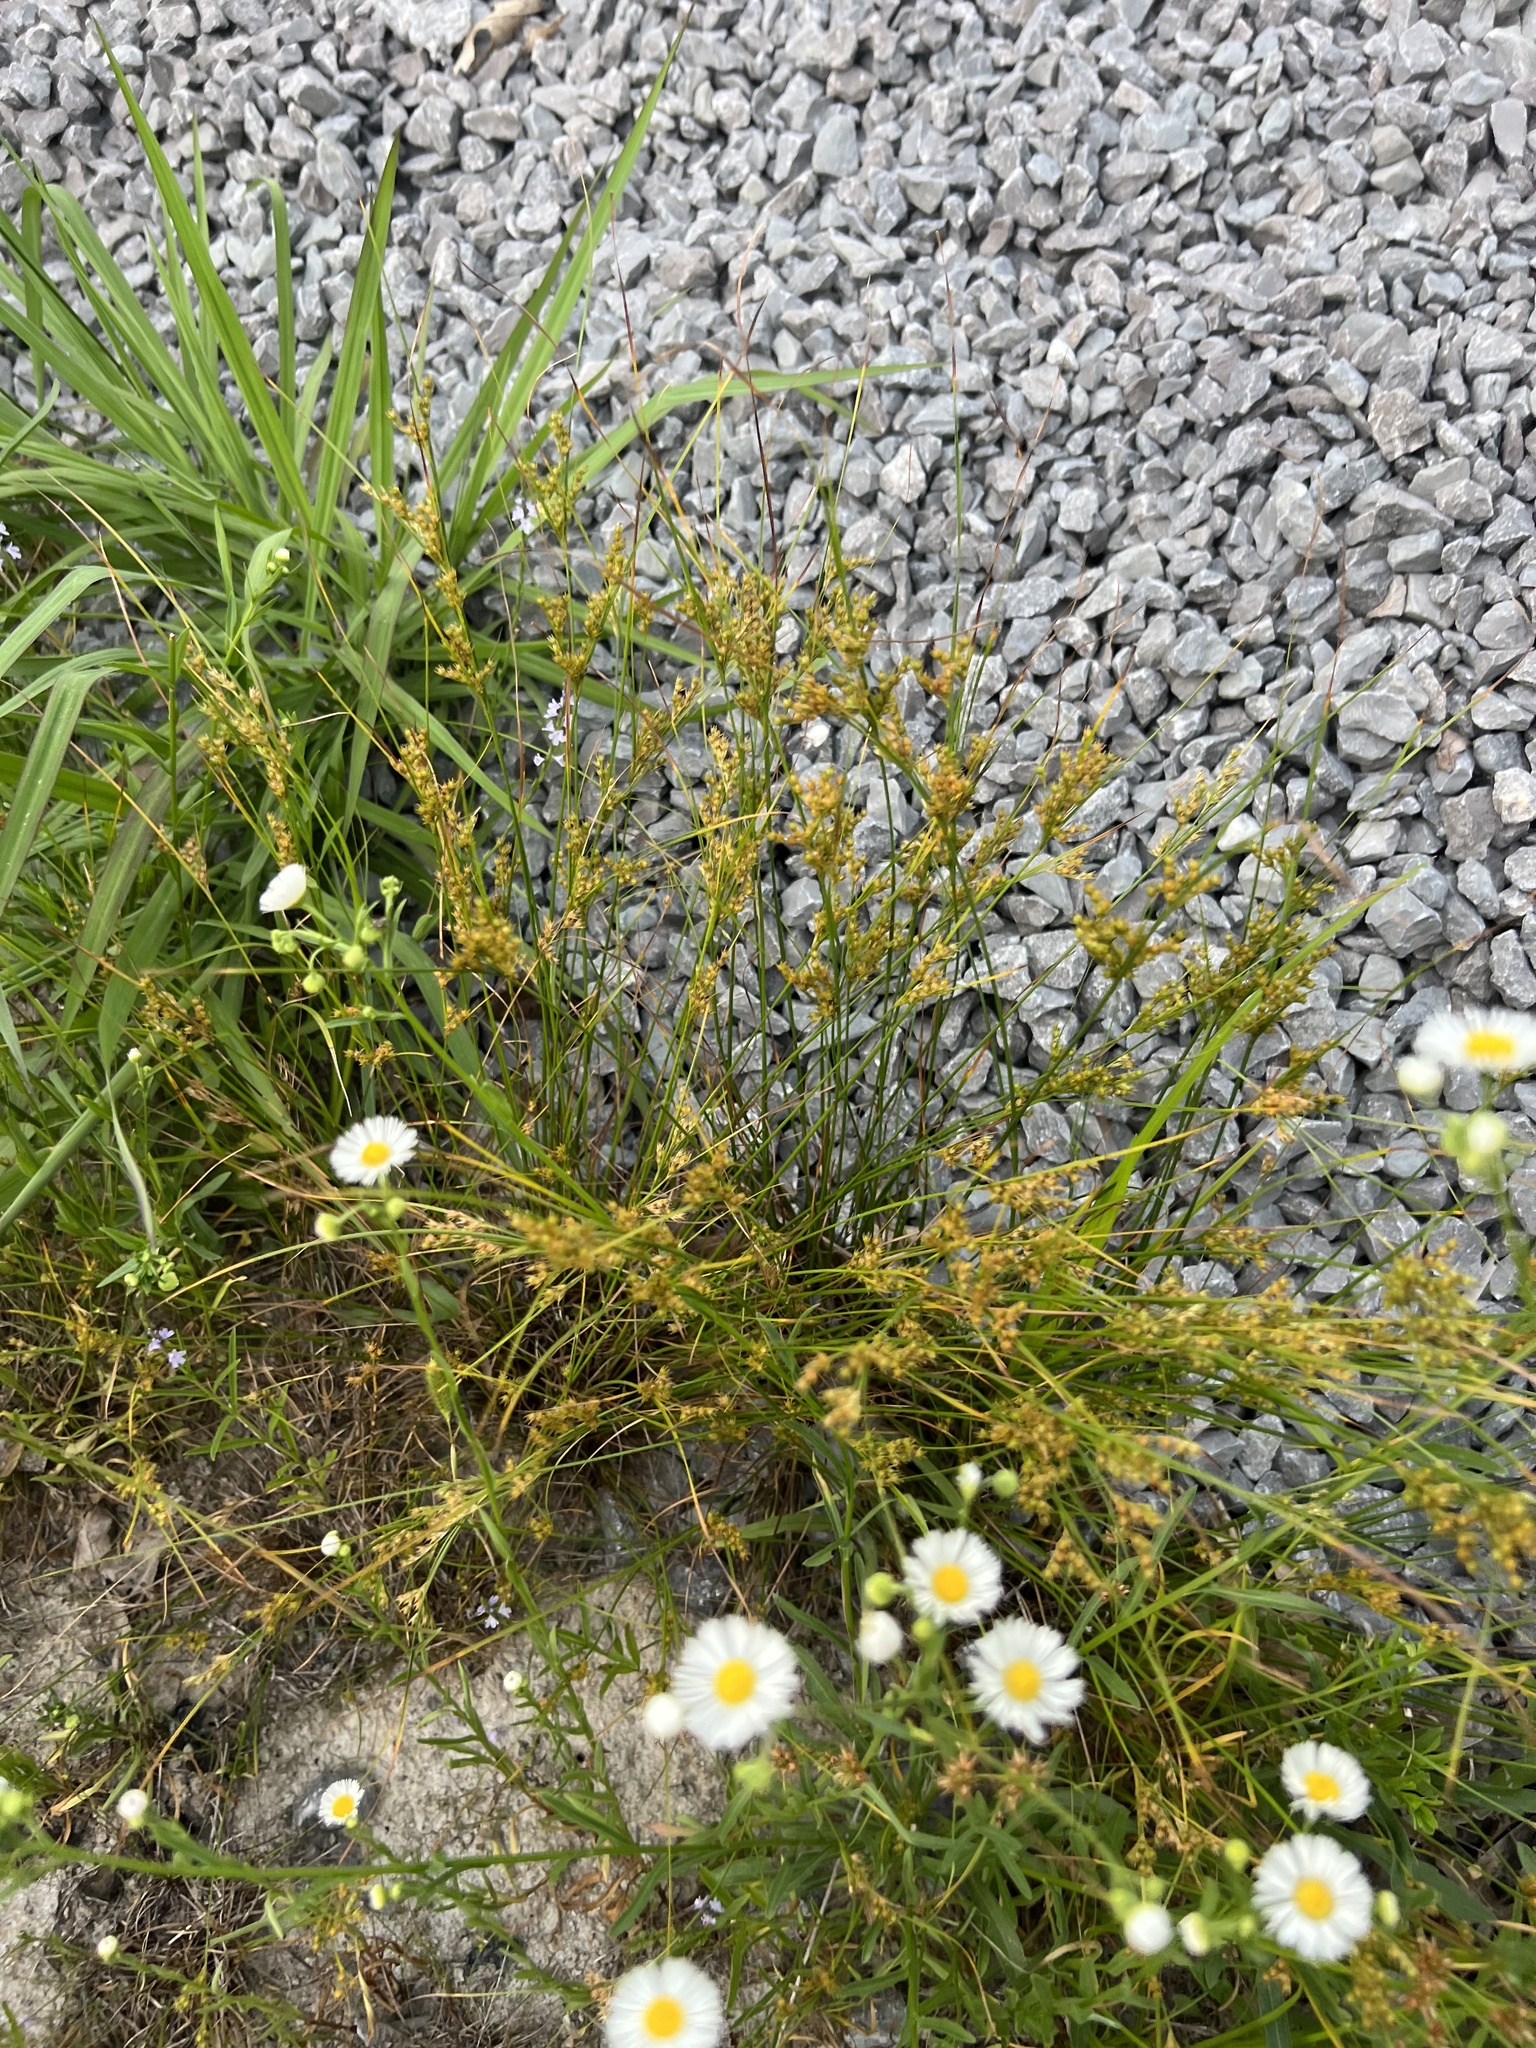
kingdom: Plantae
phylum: Tracheophyta
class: Liliopsida
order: Poales
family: Juncaceae
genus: Juncus
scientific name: Juncus tenuis
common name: Slender rush
